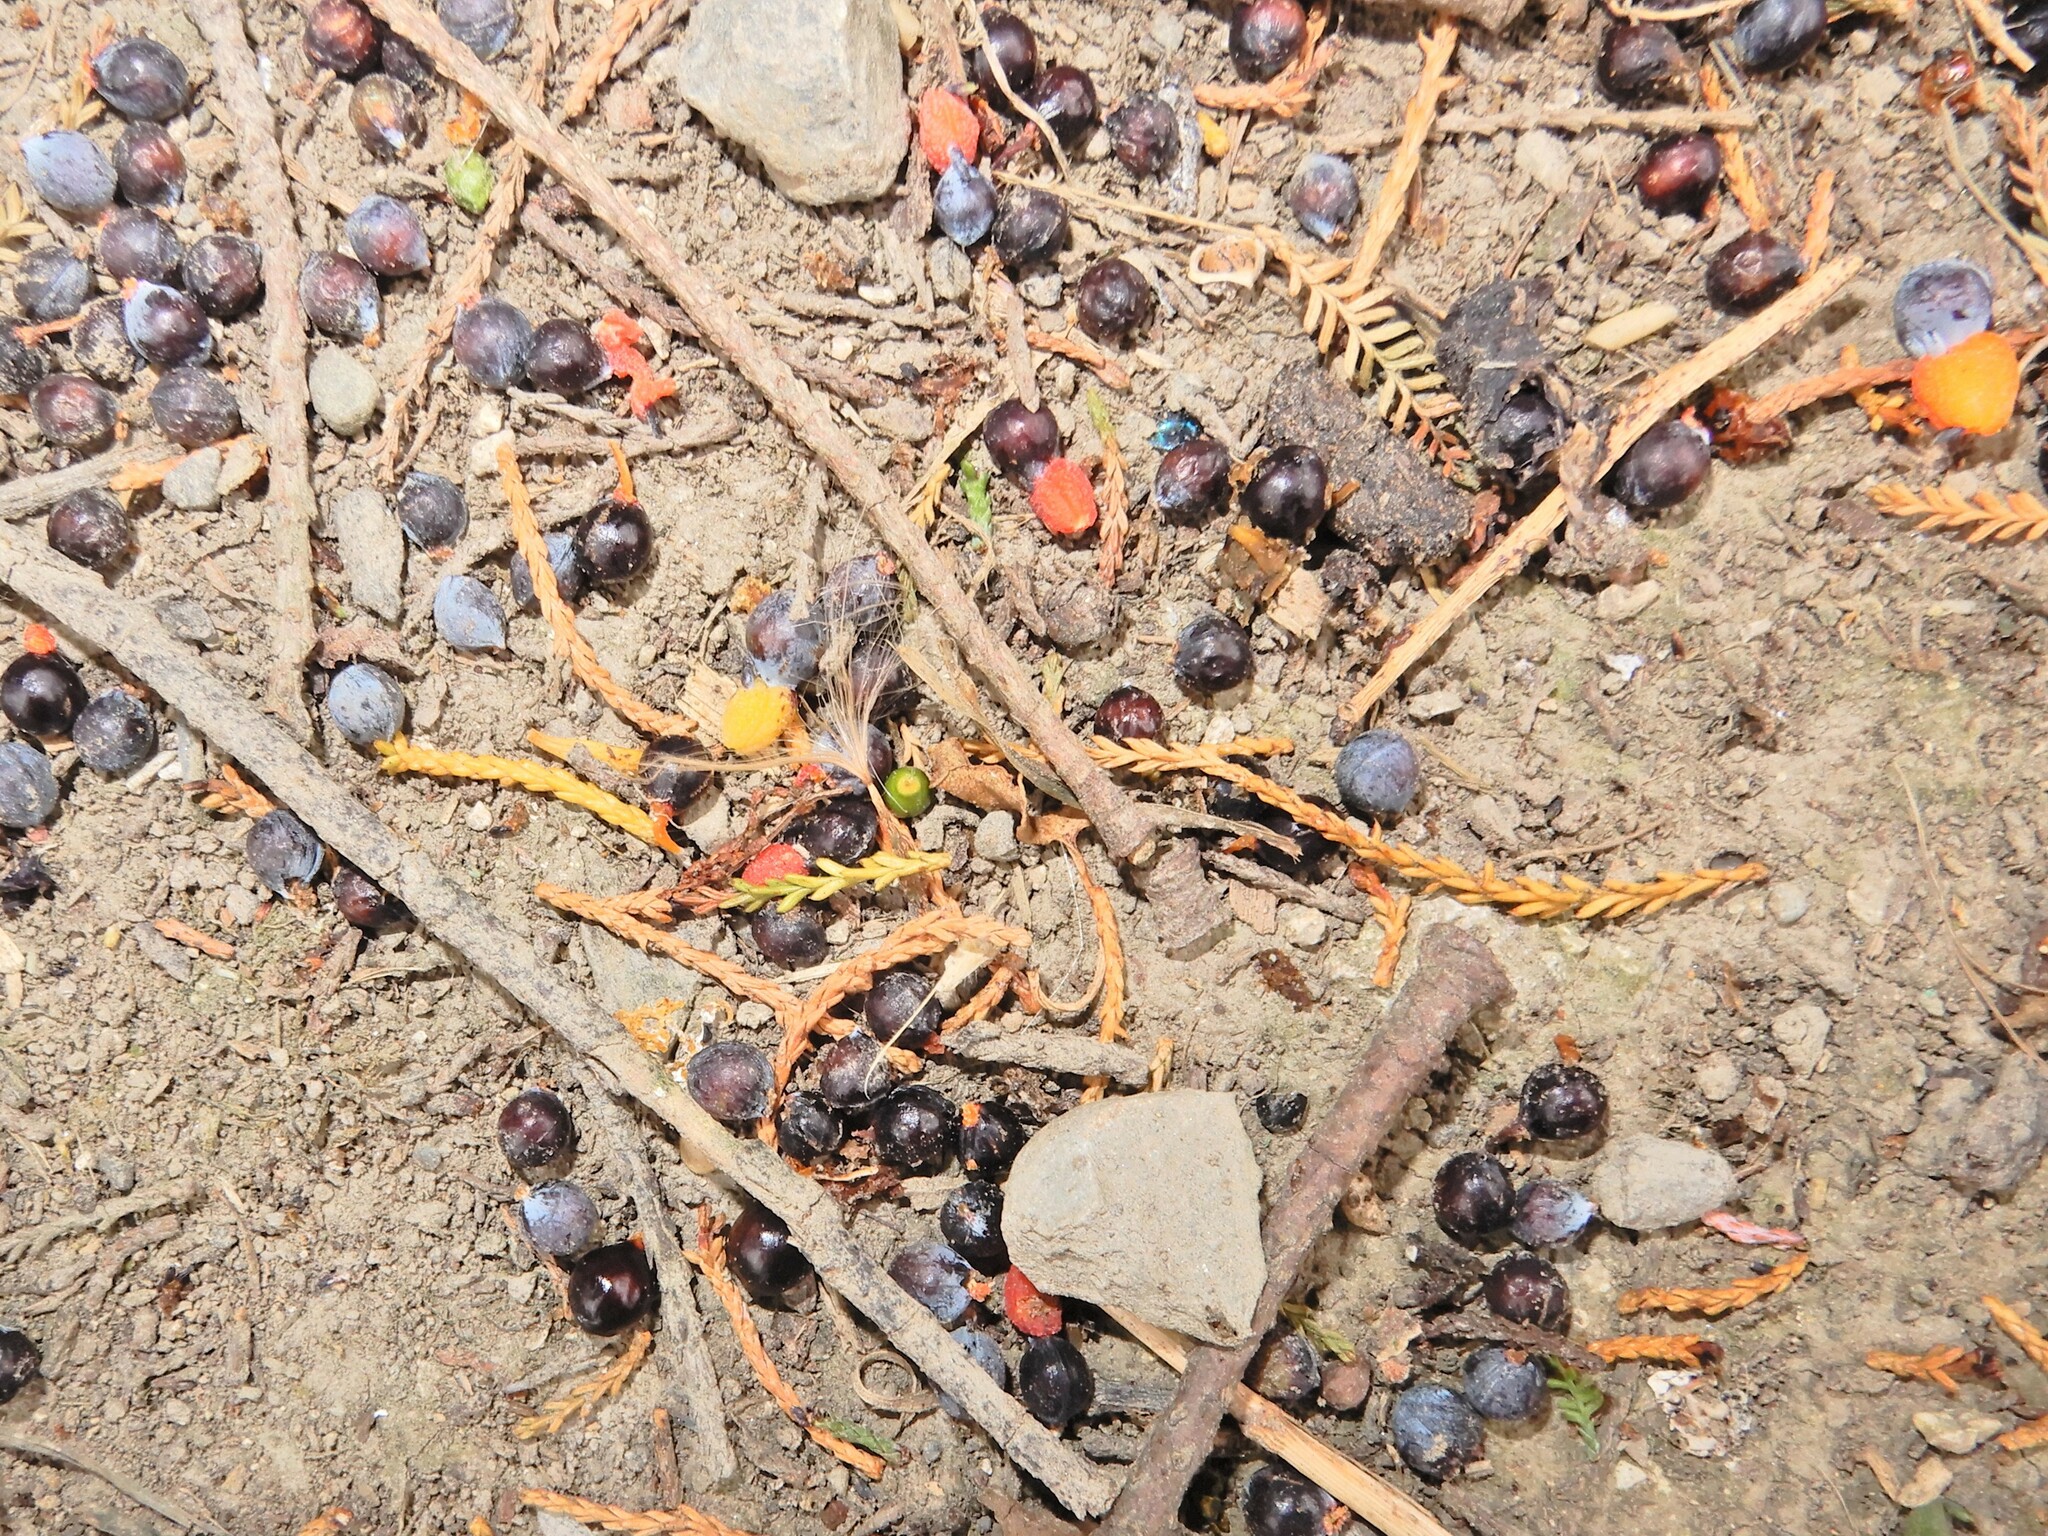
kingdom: Plantae
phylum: Tracheophyta
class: Pinopsida
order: Pinales
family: Podocarpaceae
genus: Dacrycarpus
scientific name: Dacrycarpus dacrydioides
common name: White pine
